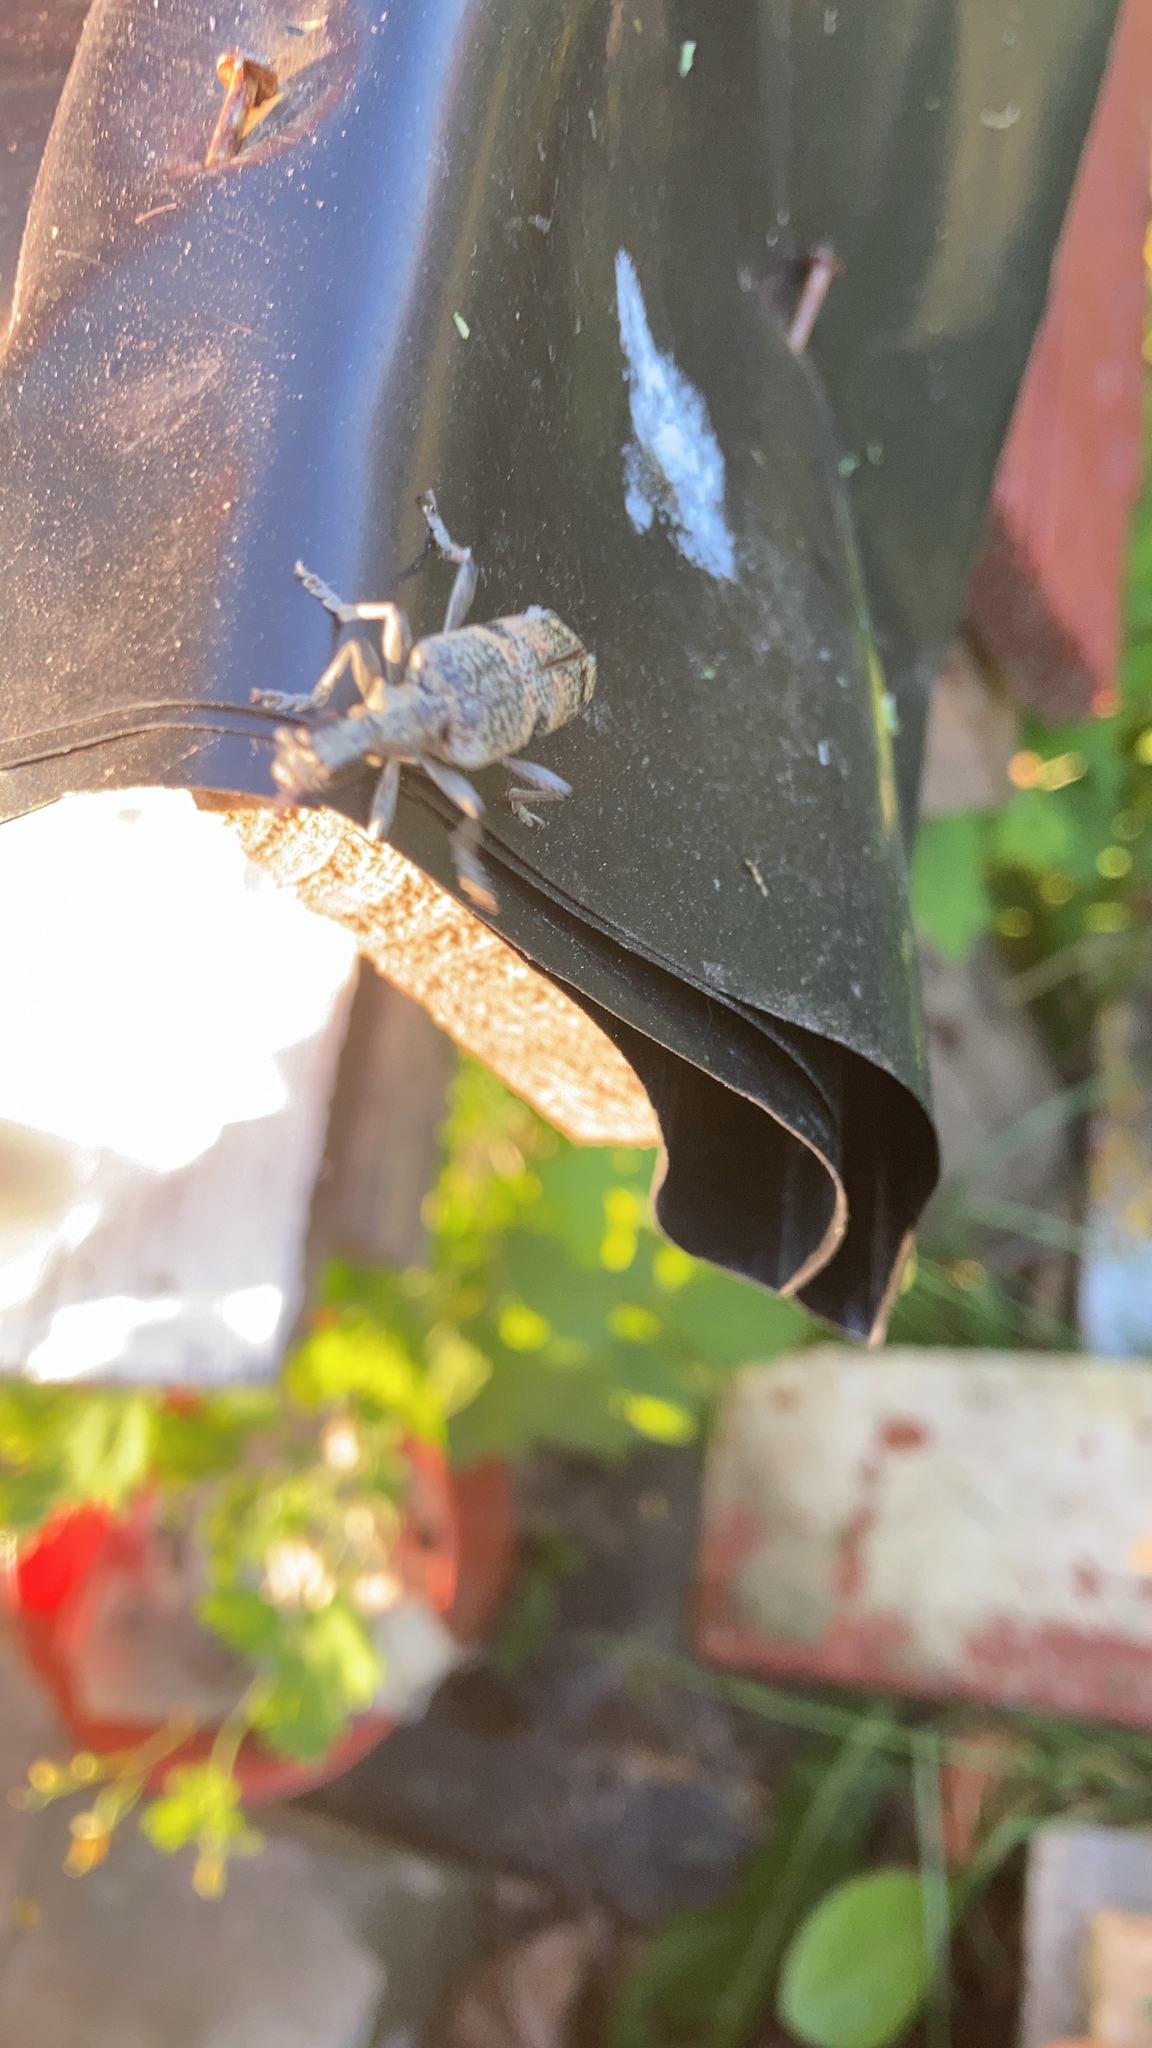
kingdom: Animalia
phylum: Arthropoda
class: Insecta
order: Coleoptera
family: Cerambycidae
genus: Rhagium
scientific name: Rhagium mordax
